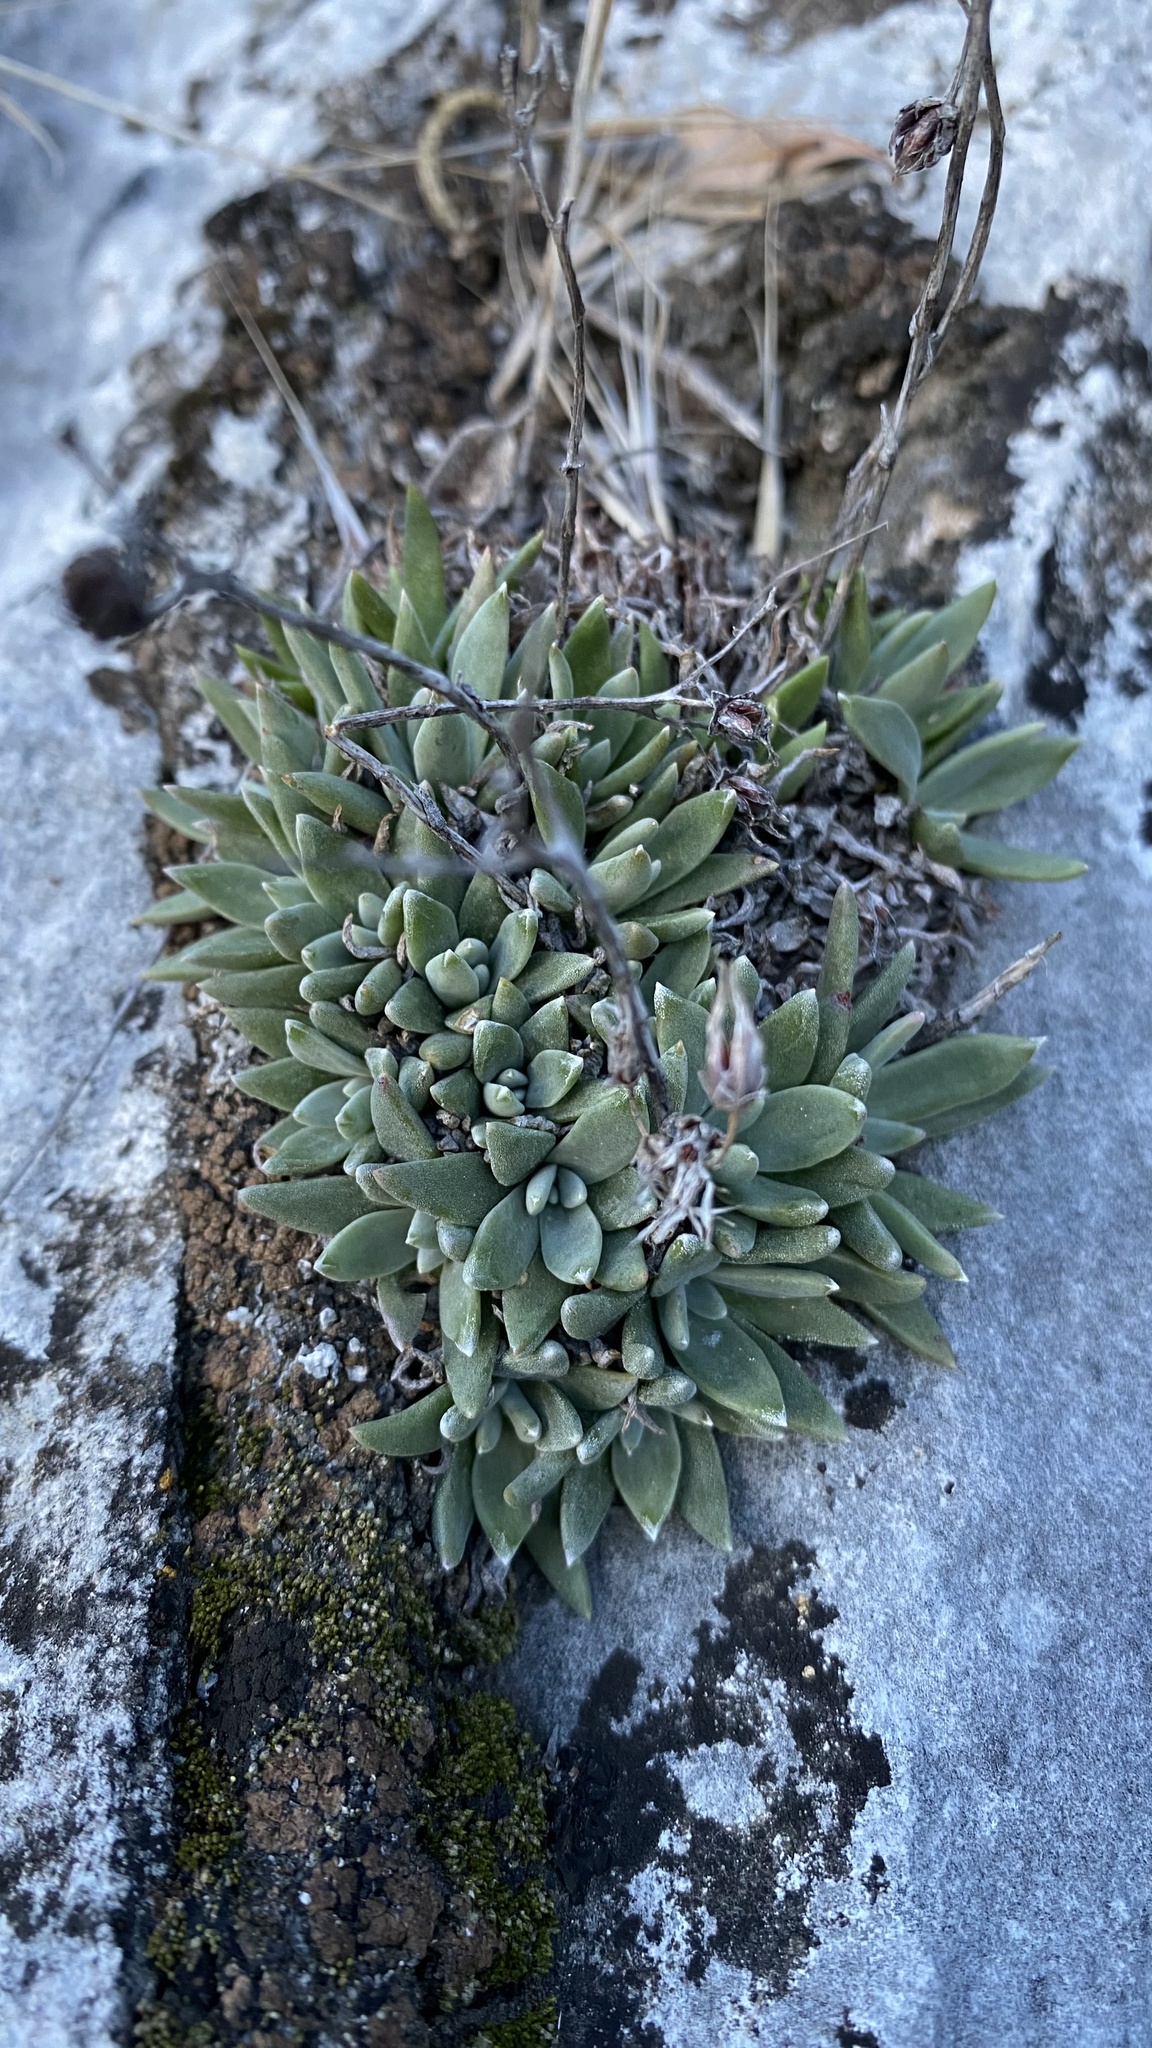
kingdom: Plantae
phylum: Tracheophyta
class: Magnoliopsida
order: Saxifragales
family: Crassulaceae
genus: Dudleya
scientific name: Dudleya abramsii
